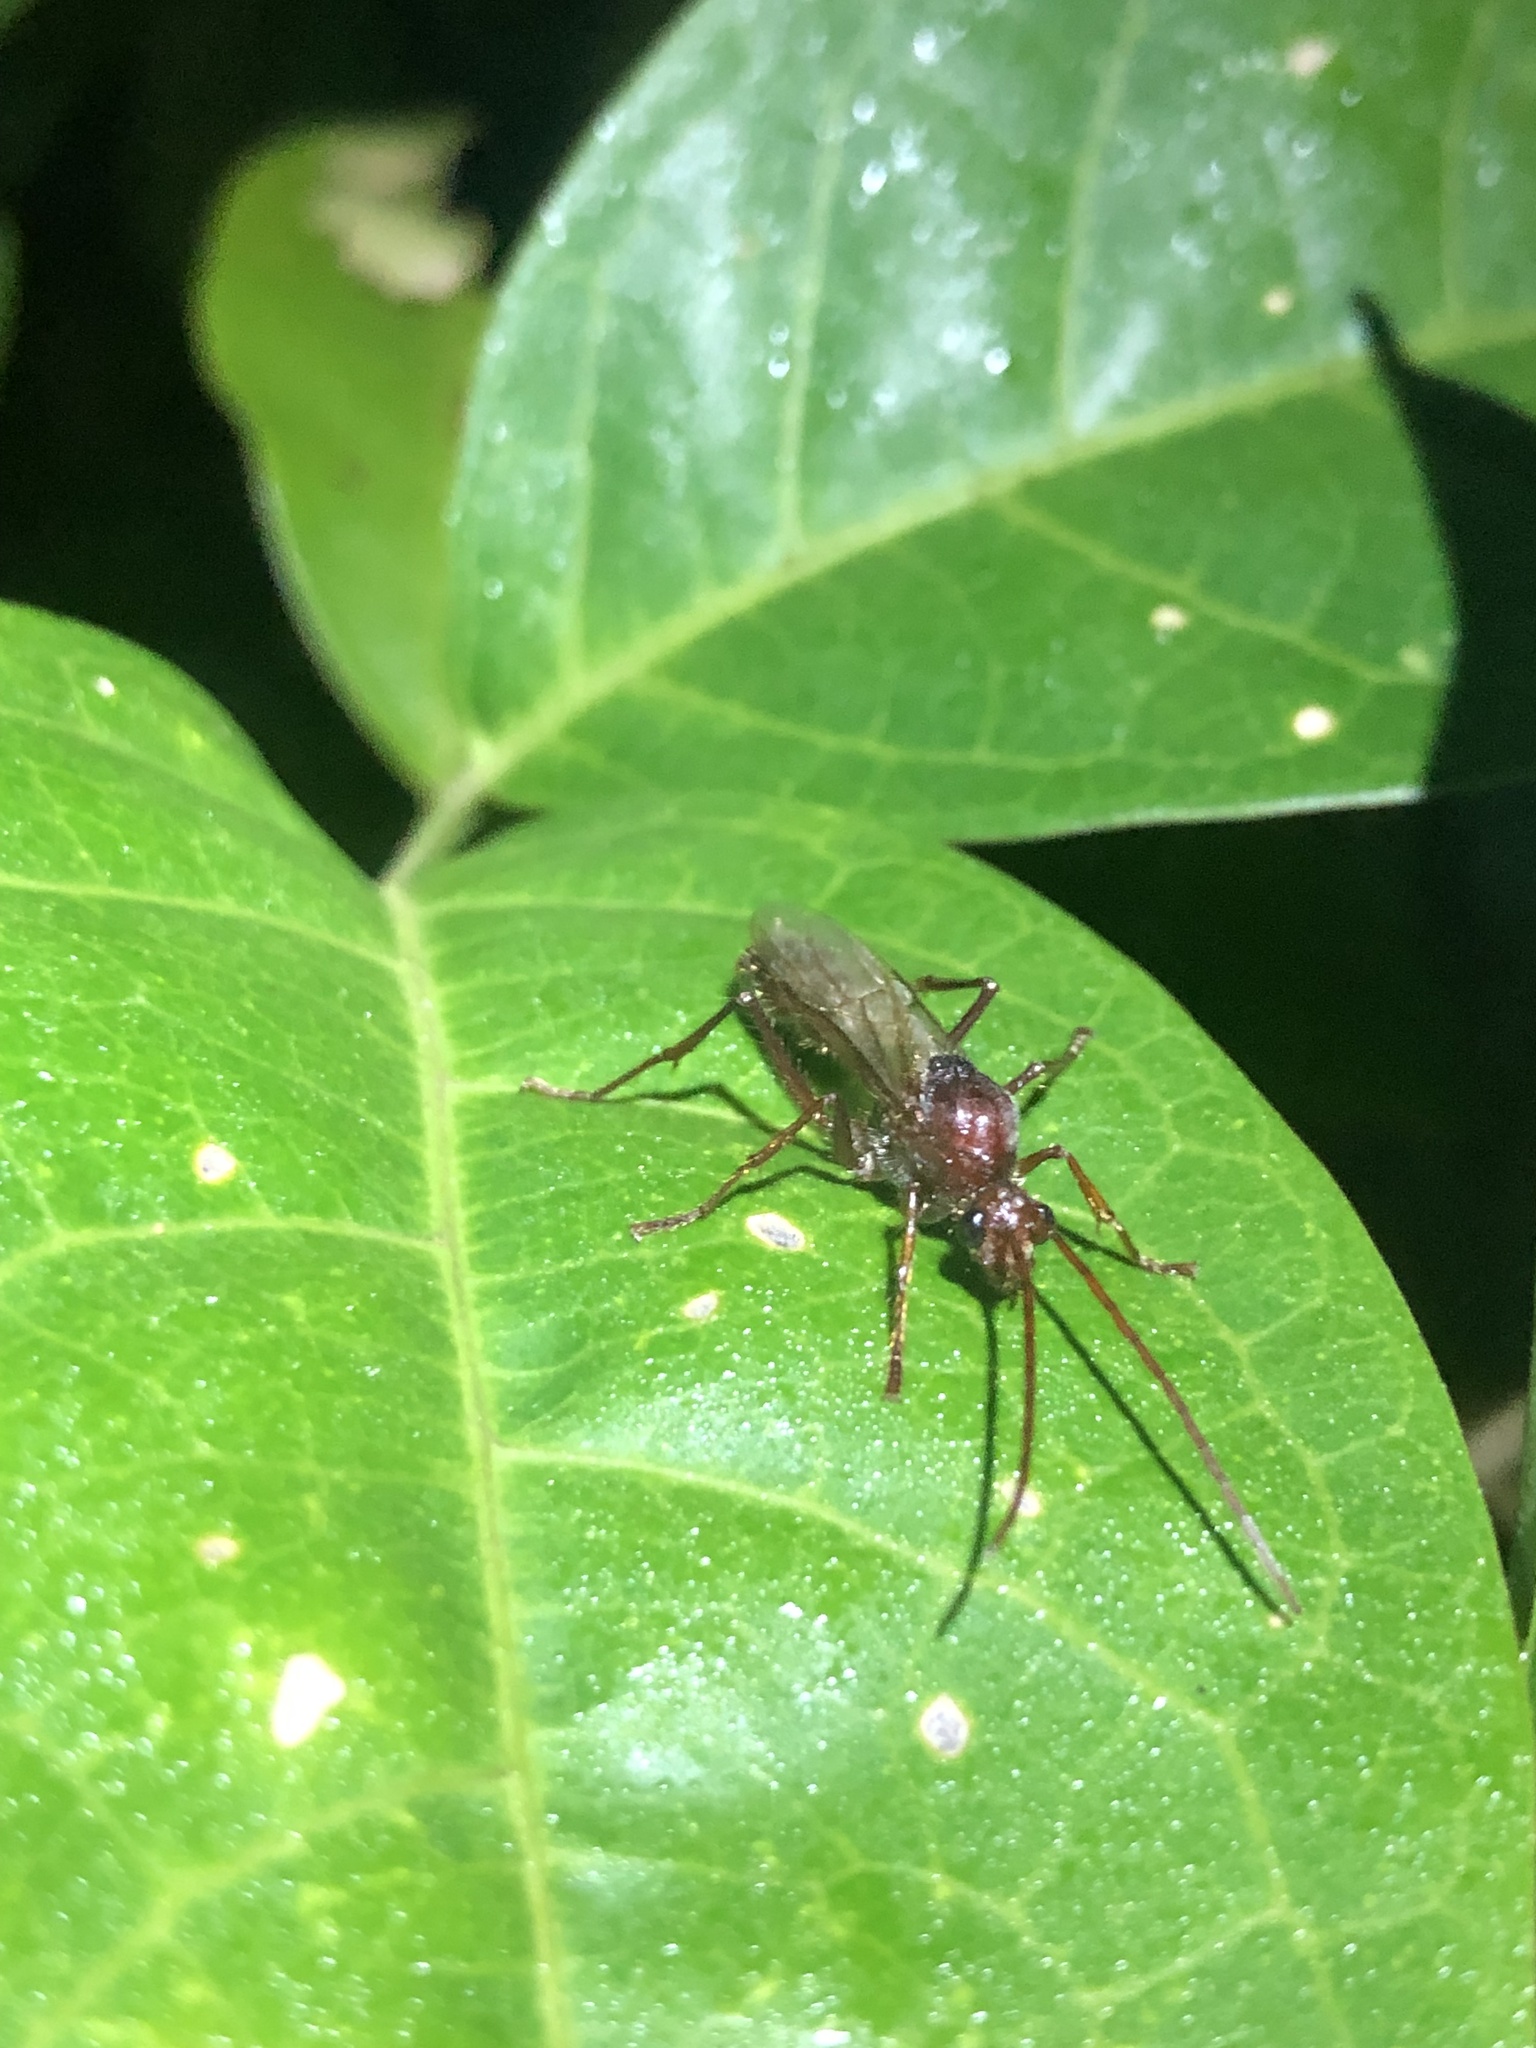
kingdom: Animalia
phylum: Arthropoda
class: Insecta
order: Hymenoptera
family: Formicidae
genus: Paraponera
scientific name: Paraponera clavata
